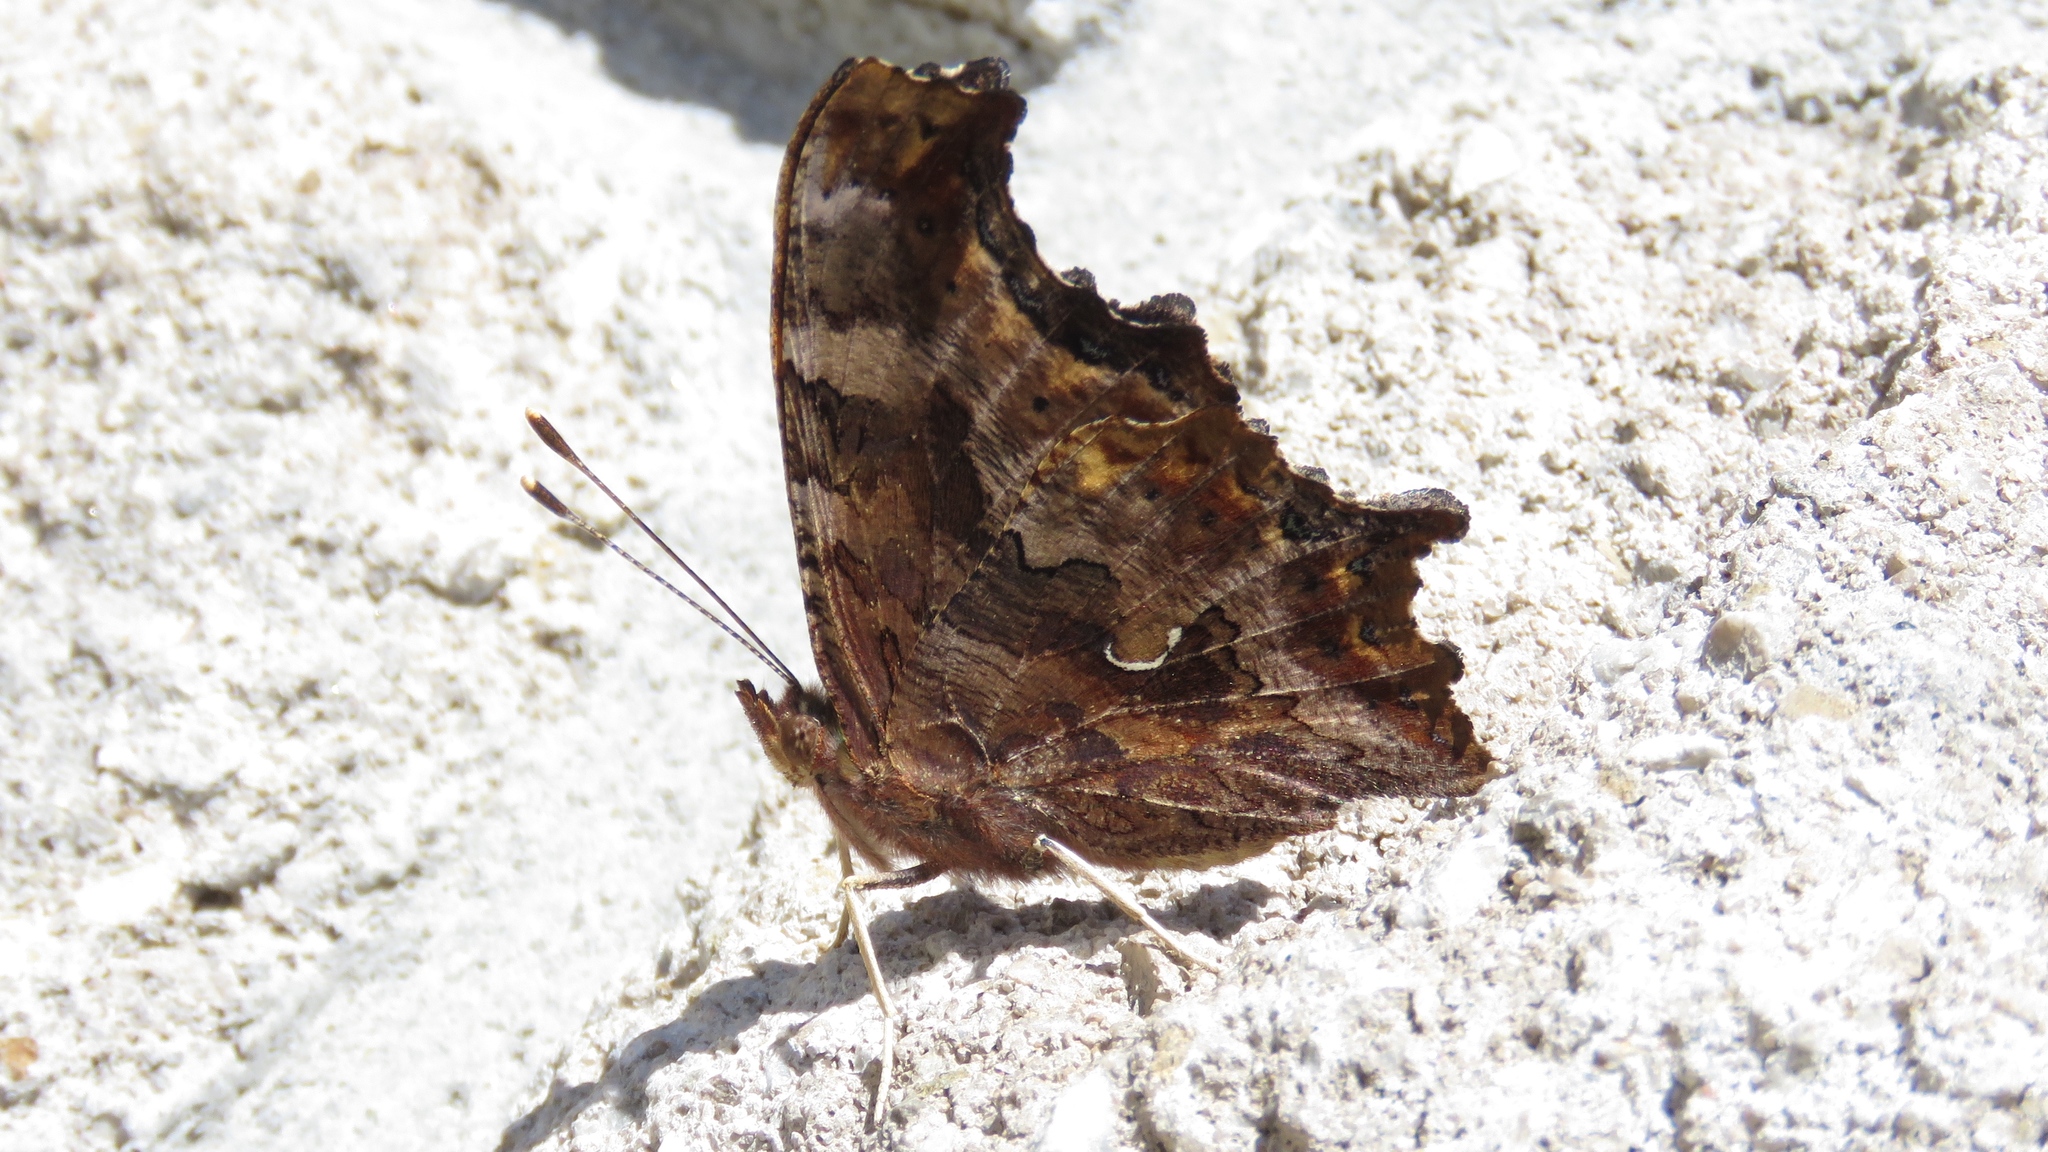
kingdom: Animalia
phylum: Arthropoda
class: Insecta
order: Lepidoptera
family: Nymphalidae
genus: Polygonia
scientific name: Polygonia comma
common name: Eastern comma
